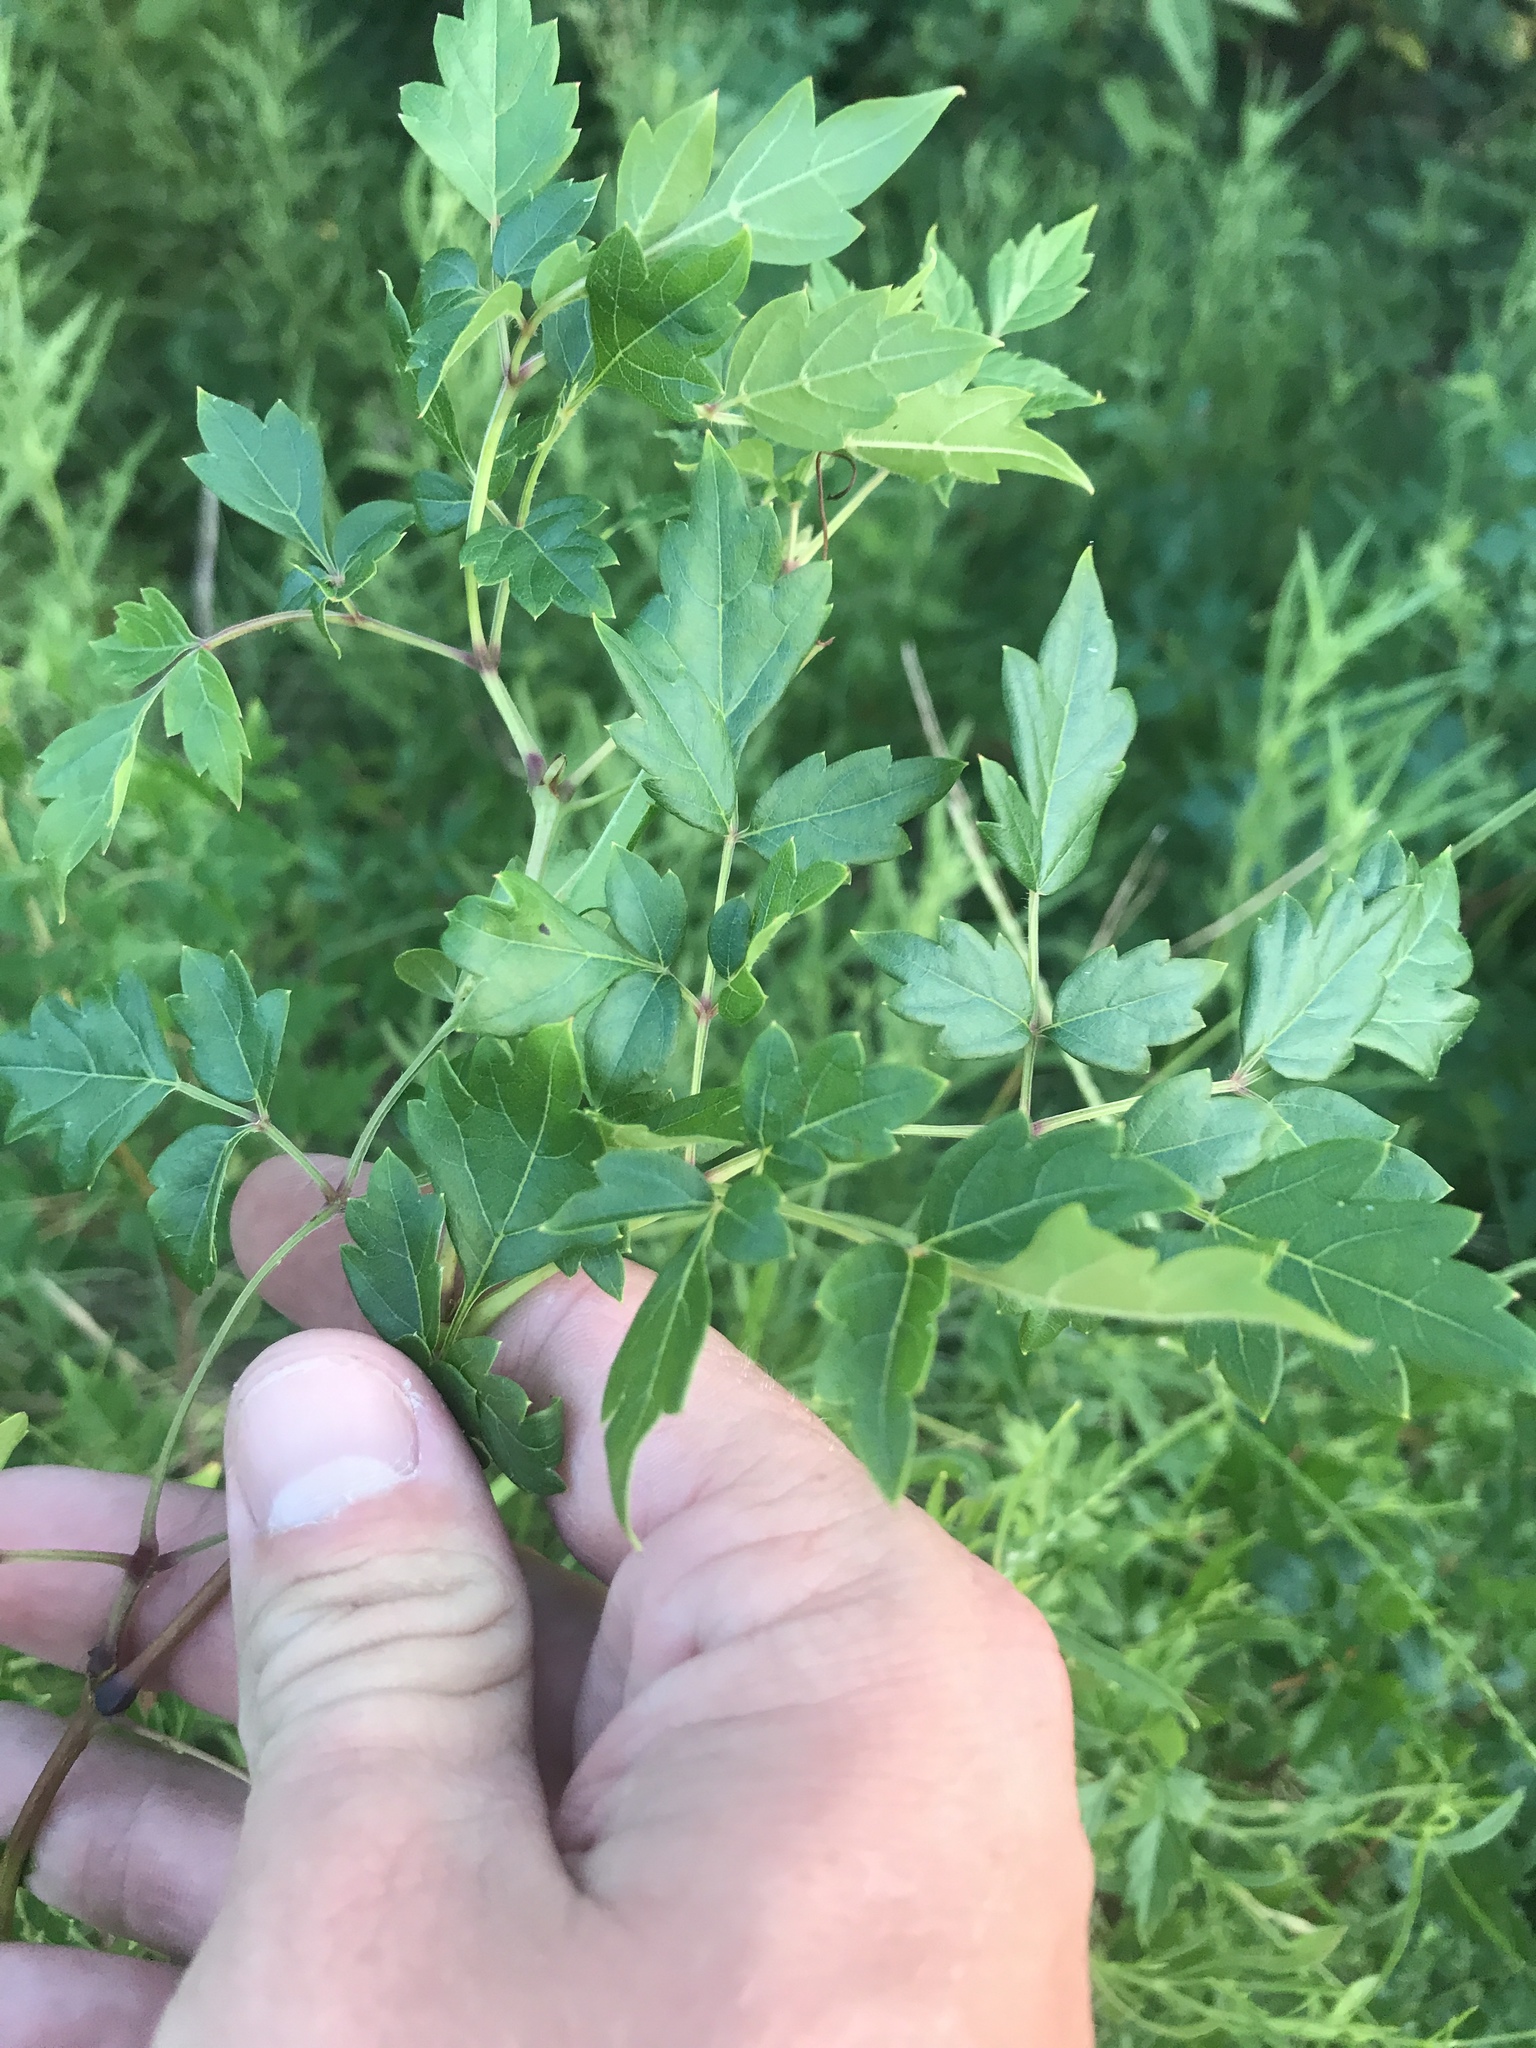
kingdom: Plantae
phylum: Tracheophyta
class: Magnoliopsida
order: Vitales
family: Vitaceae
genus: Nekemias
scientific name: Nekemias arborea
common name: Peppervine
